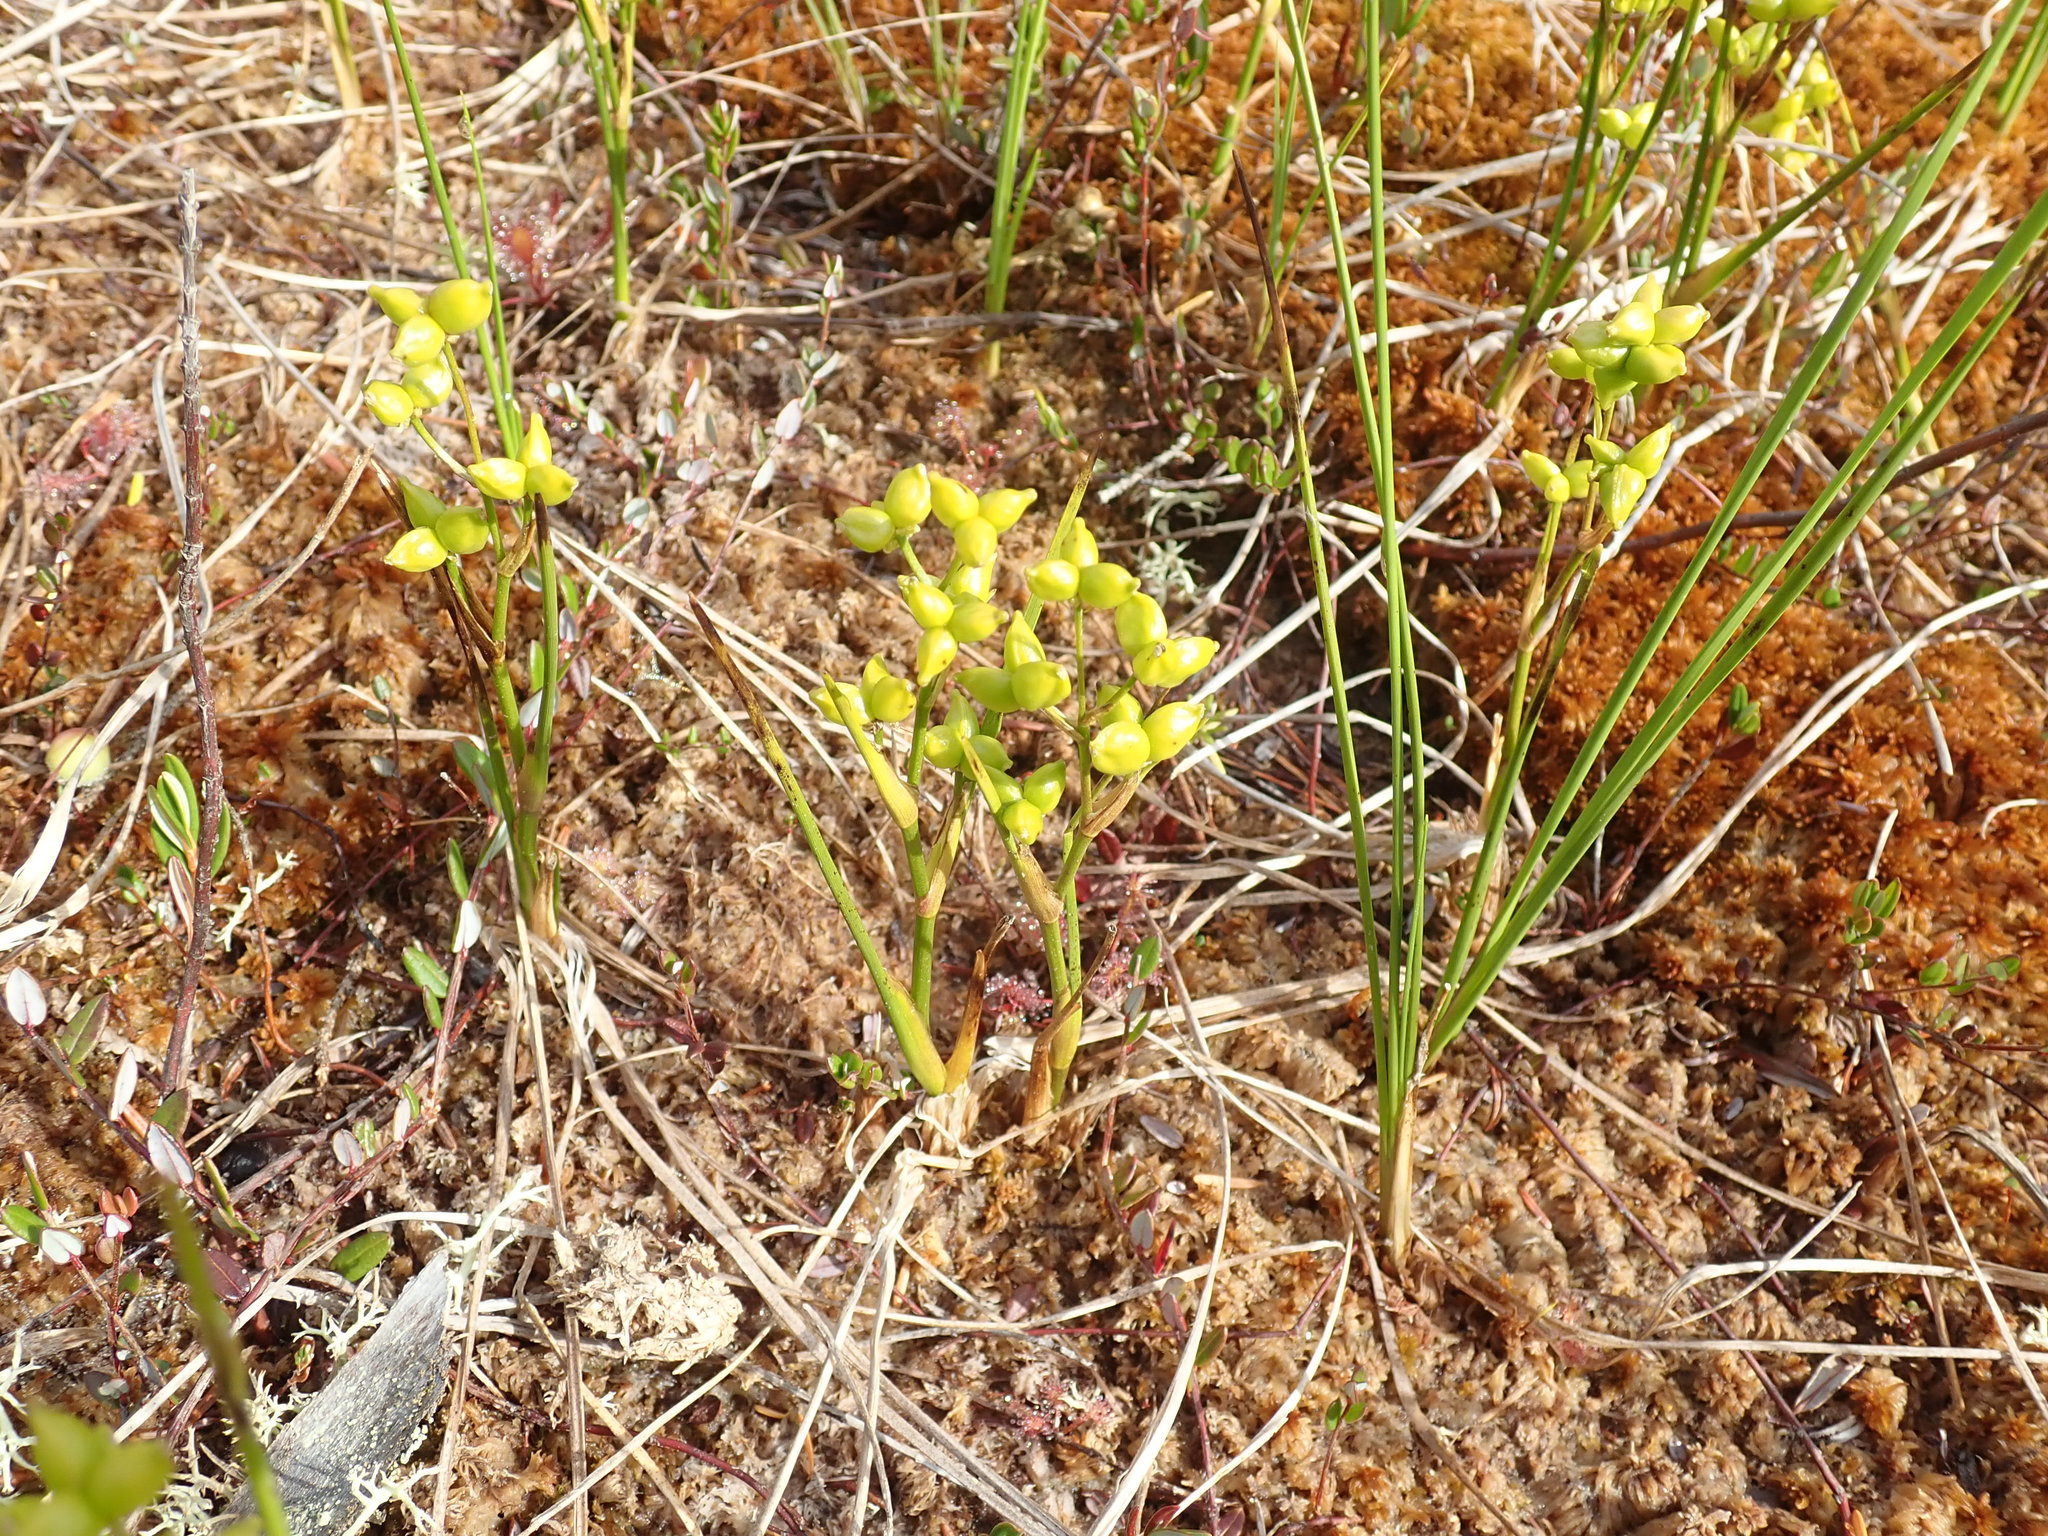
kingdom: Plantae
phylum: Tracheophyta
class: Liliopsida
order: Alismatales
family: Scheuchzeriaceae
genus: Scheuchzeria
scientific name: Scheuchzeria palustris
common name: Rannoch-rush
